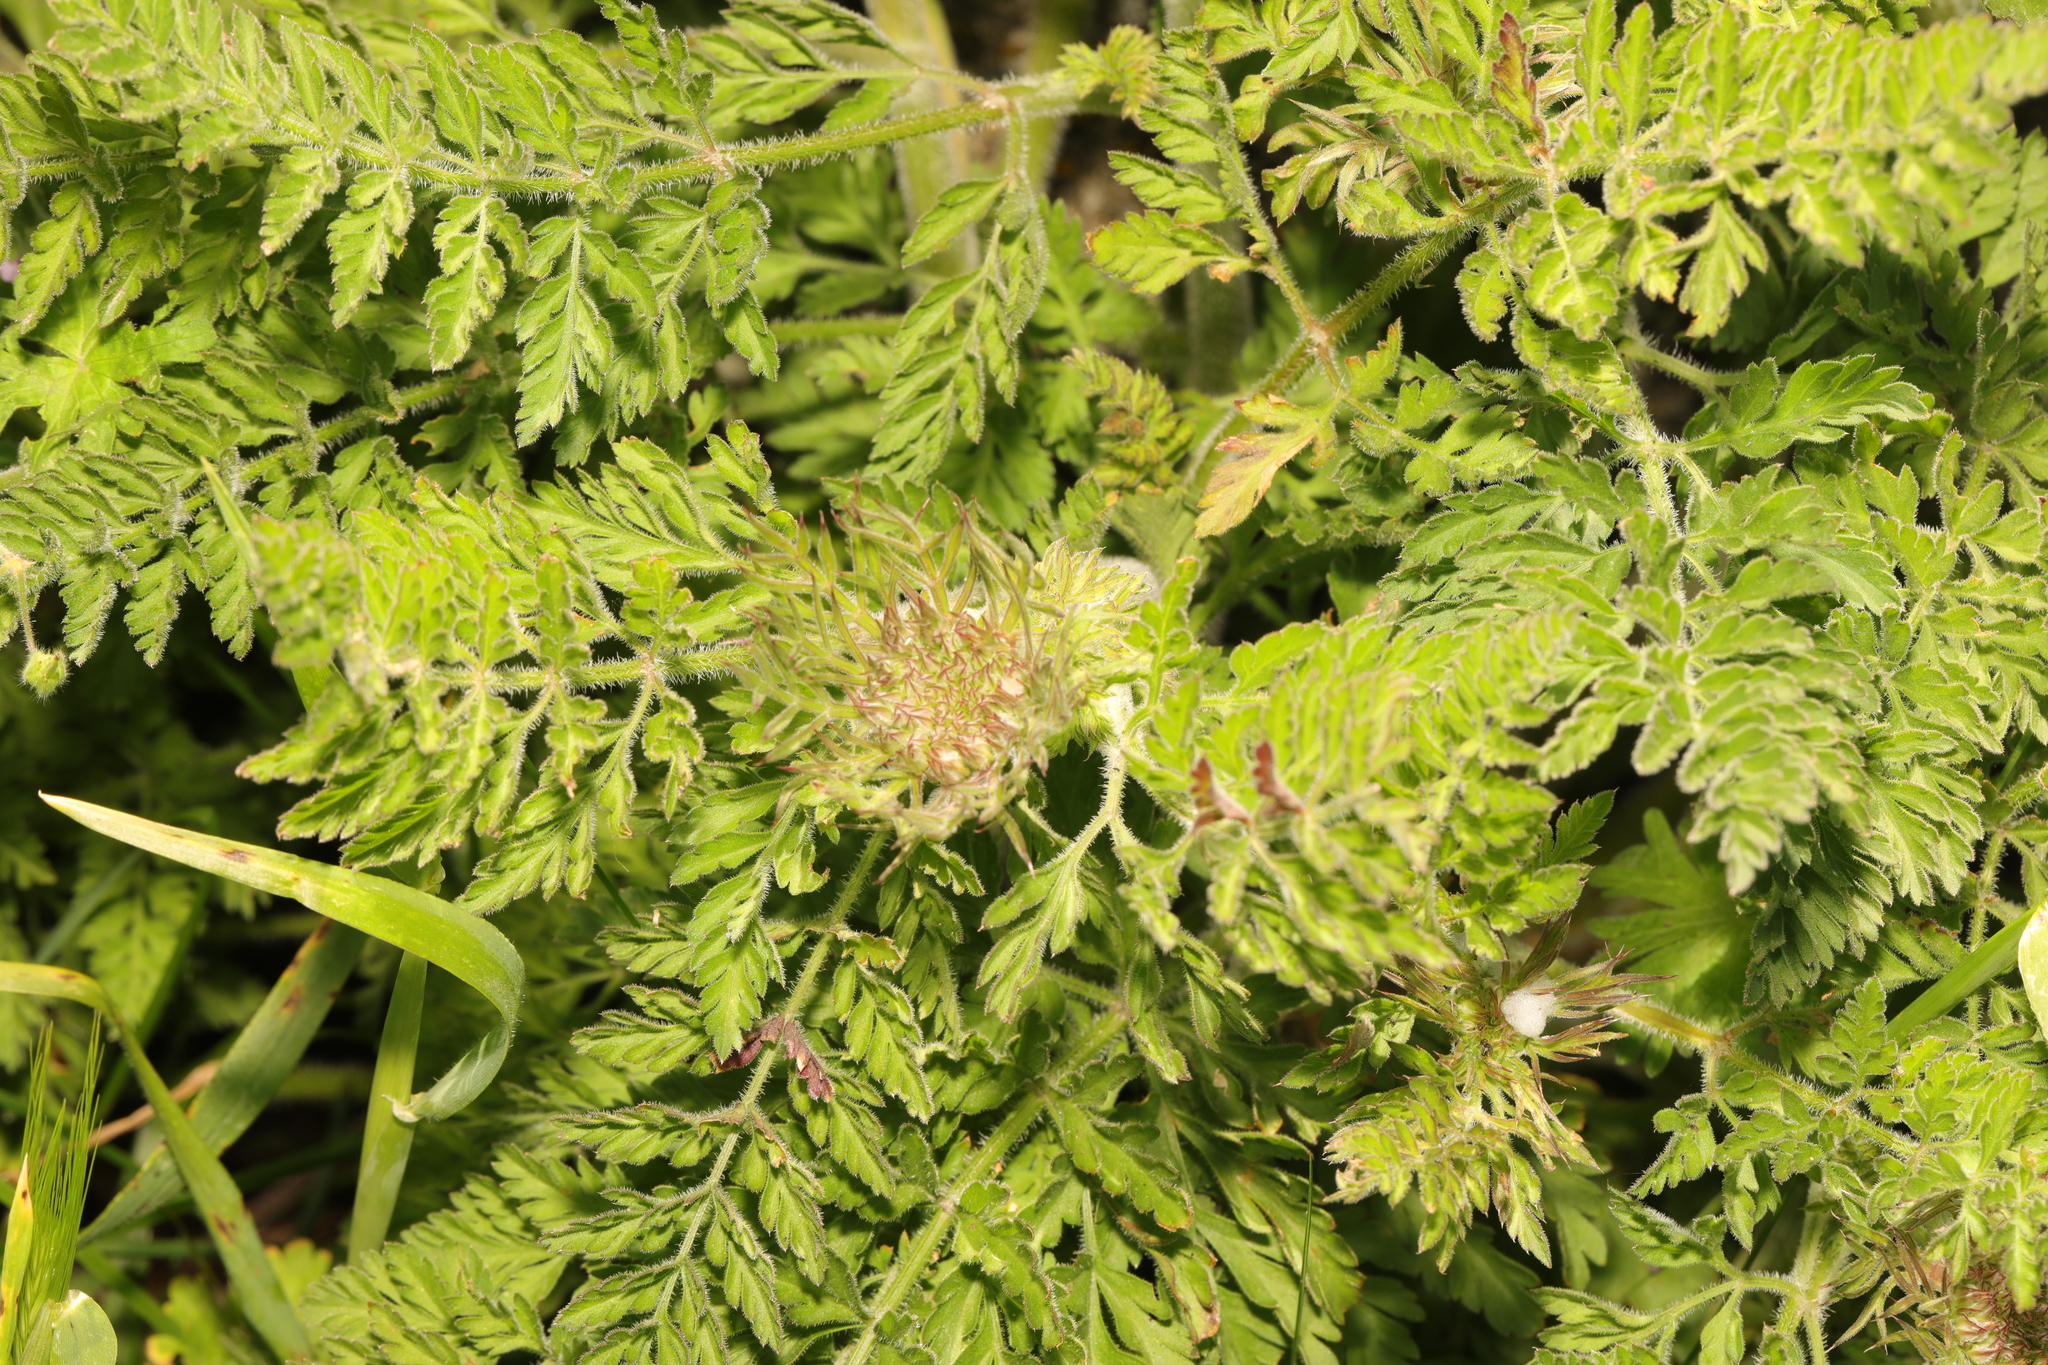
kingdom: Plantae
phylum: Tracheophyta
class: Magnoliopsida
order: Apiales
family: Apiaceae
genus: Daucus
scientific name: Daucus carota
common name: Wild carrot
